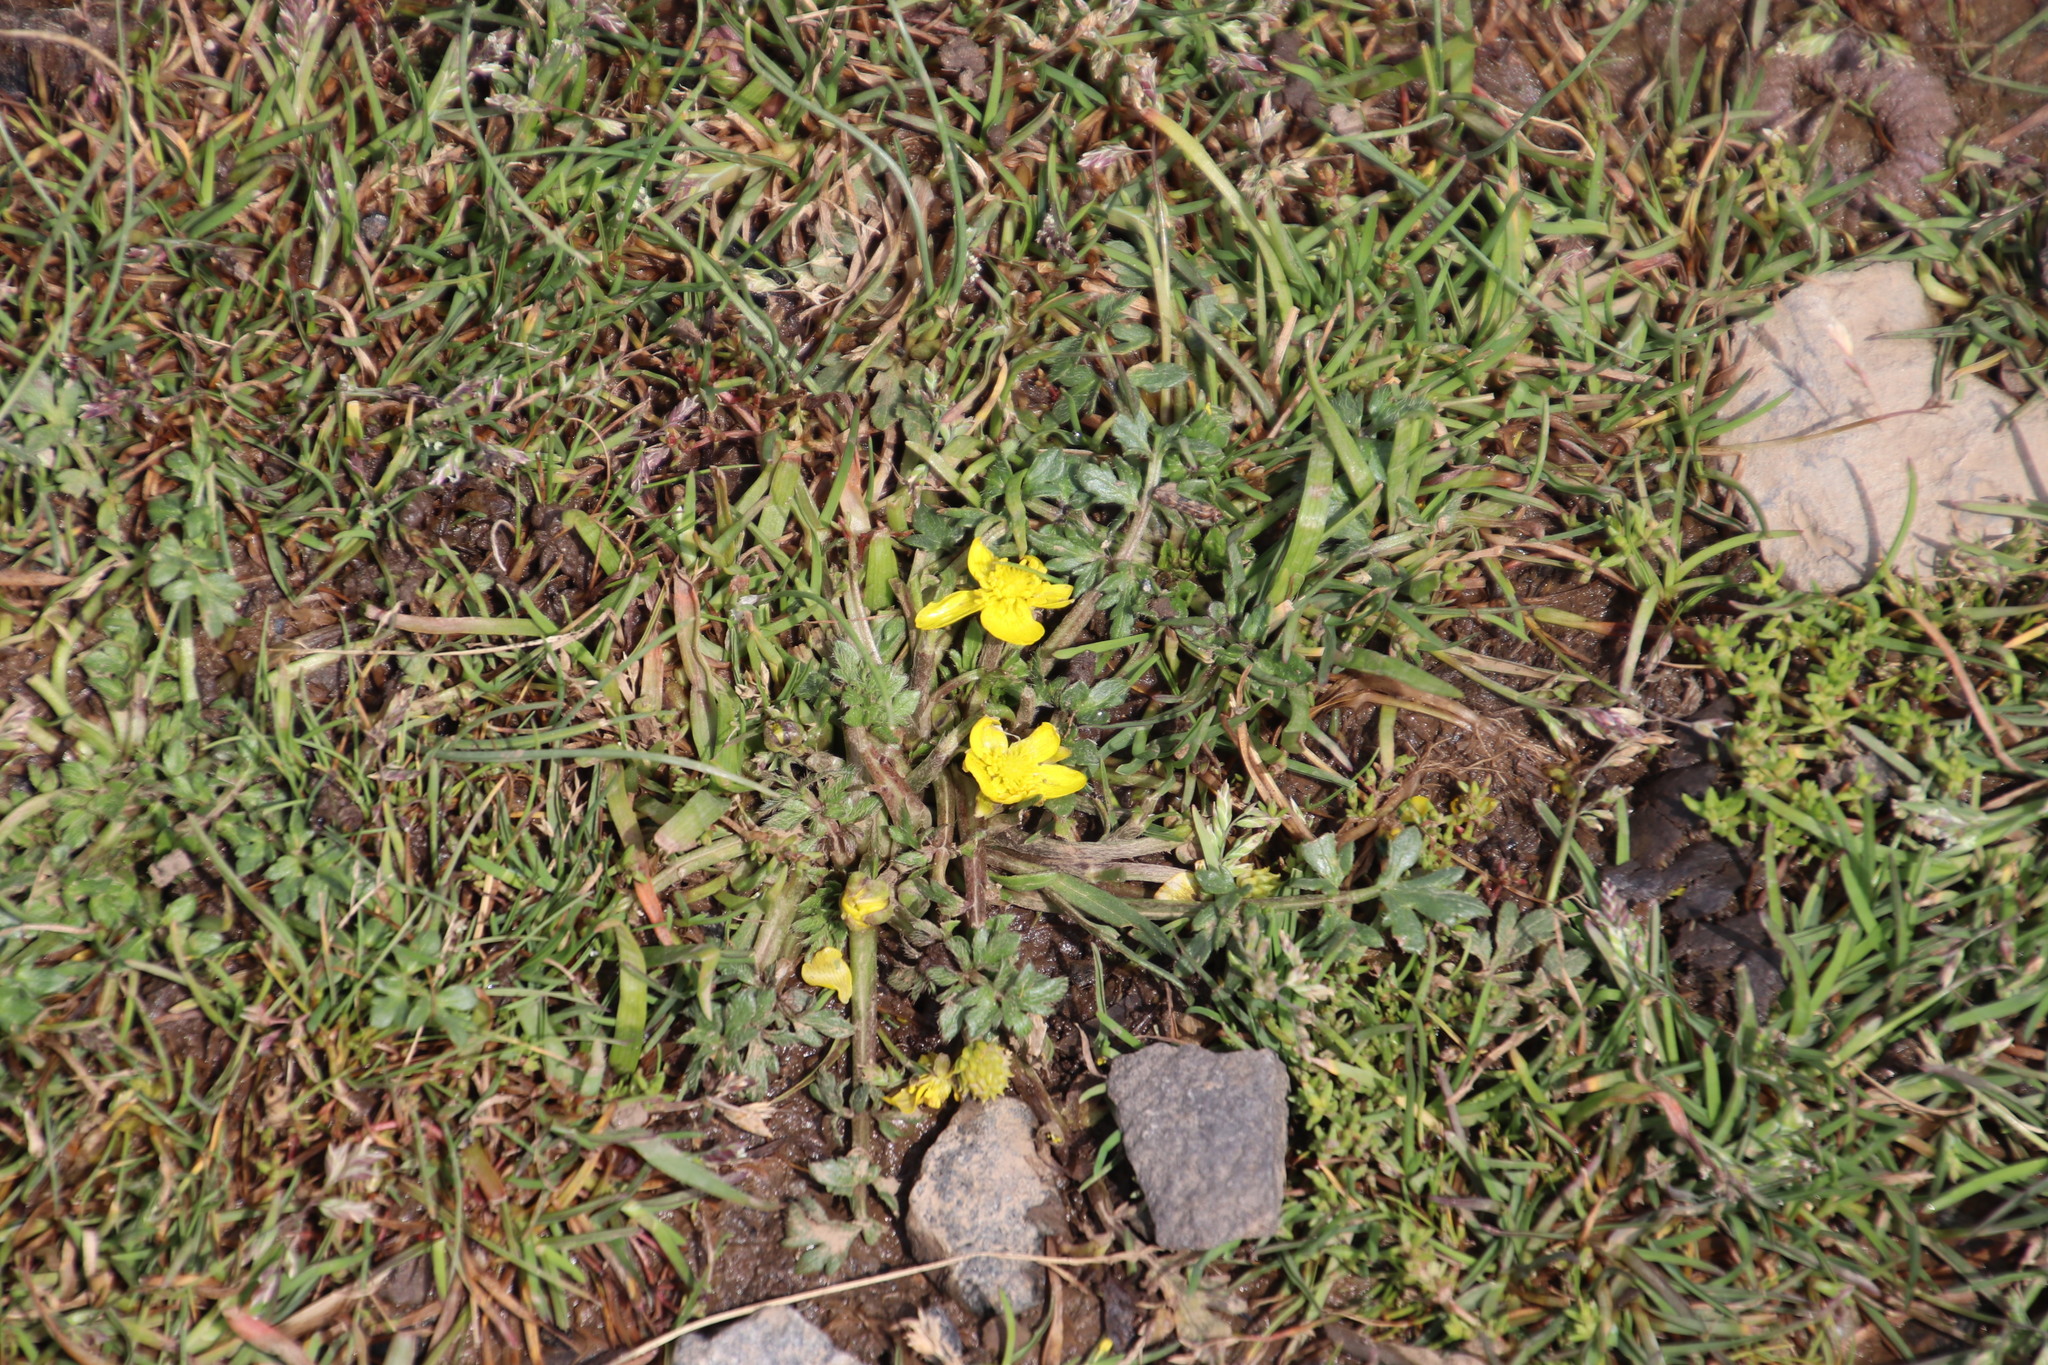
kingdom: Plantae
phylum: Tracheophyta
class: Magnoliopsida
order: Ranunculales
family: Ranunculaceae
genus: Ranunculus
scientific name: Ranunculus multifidus
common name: Wild buttercup
